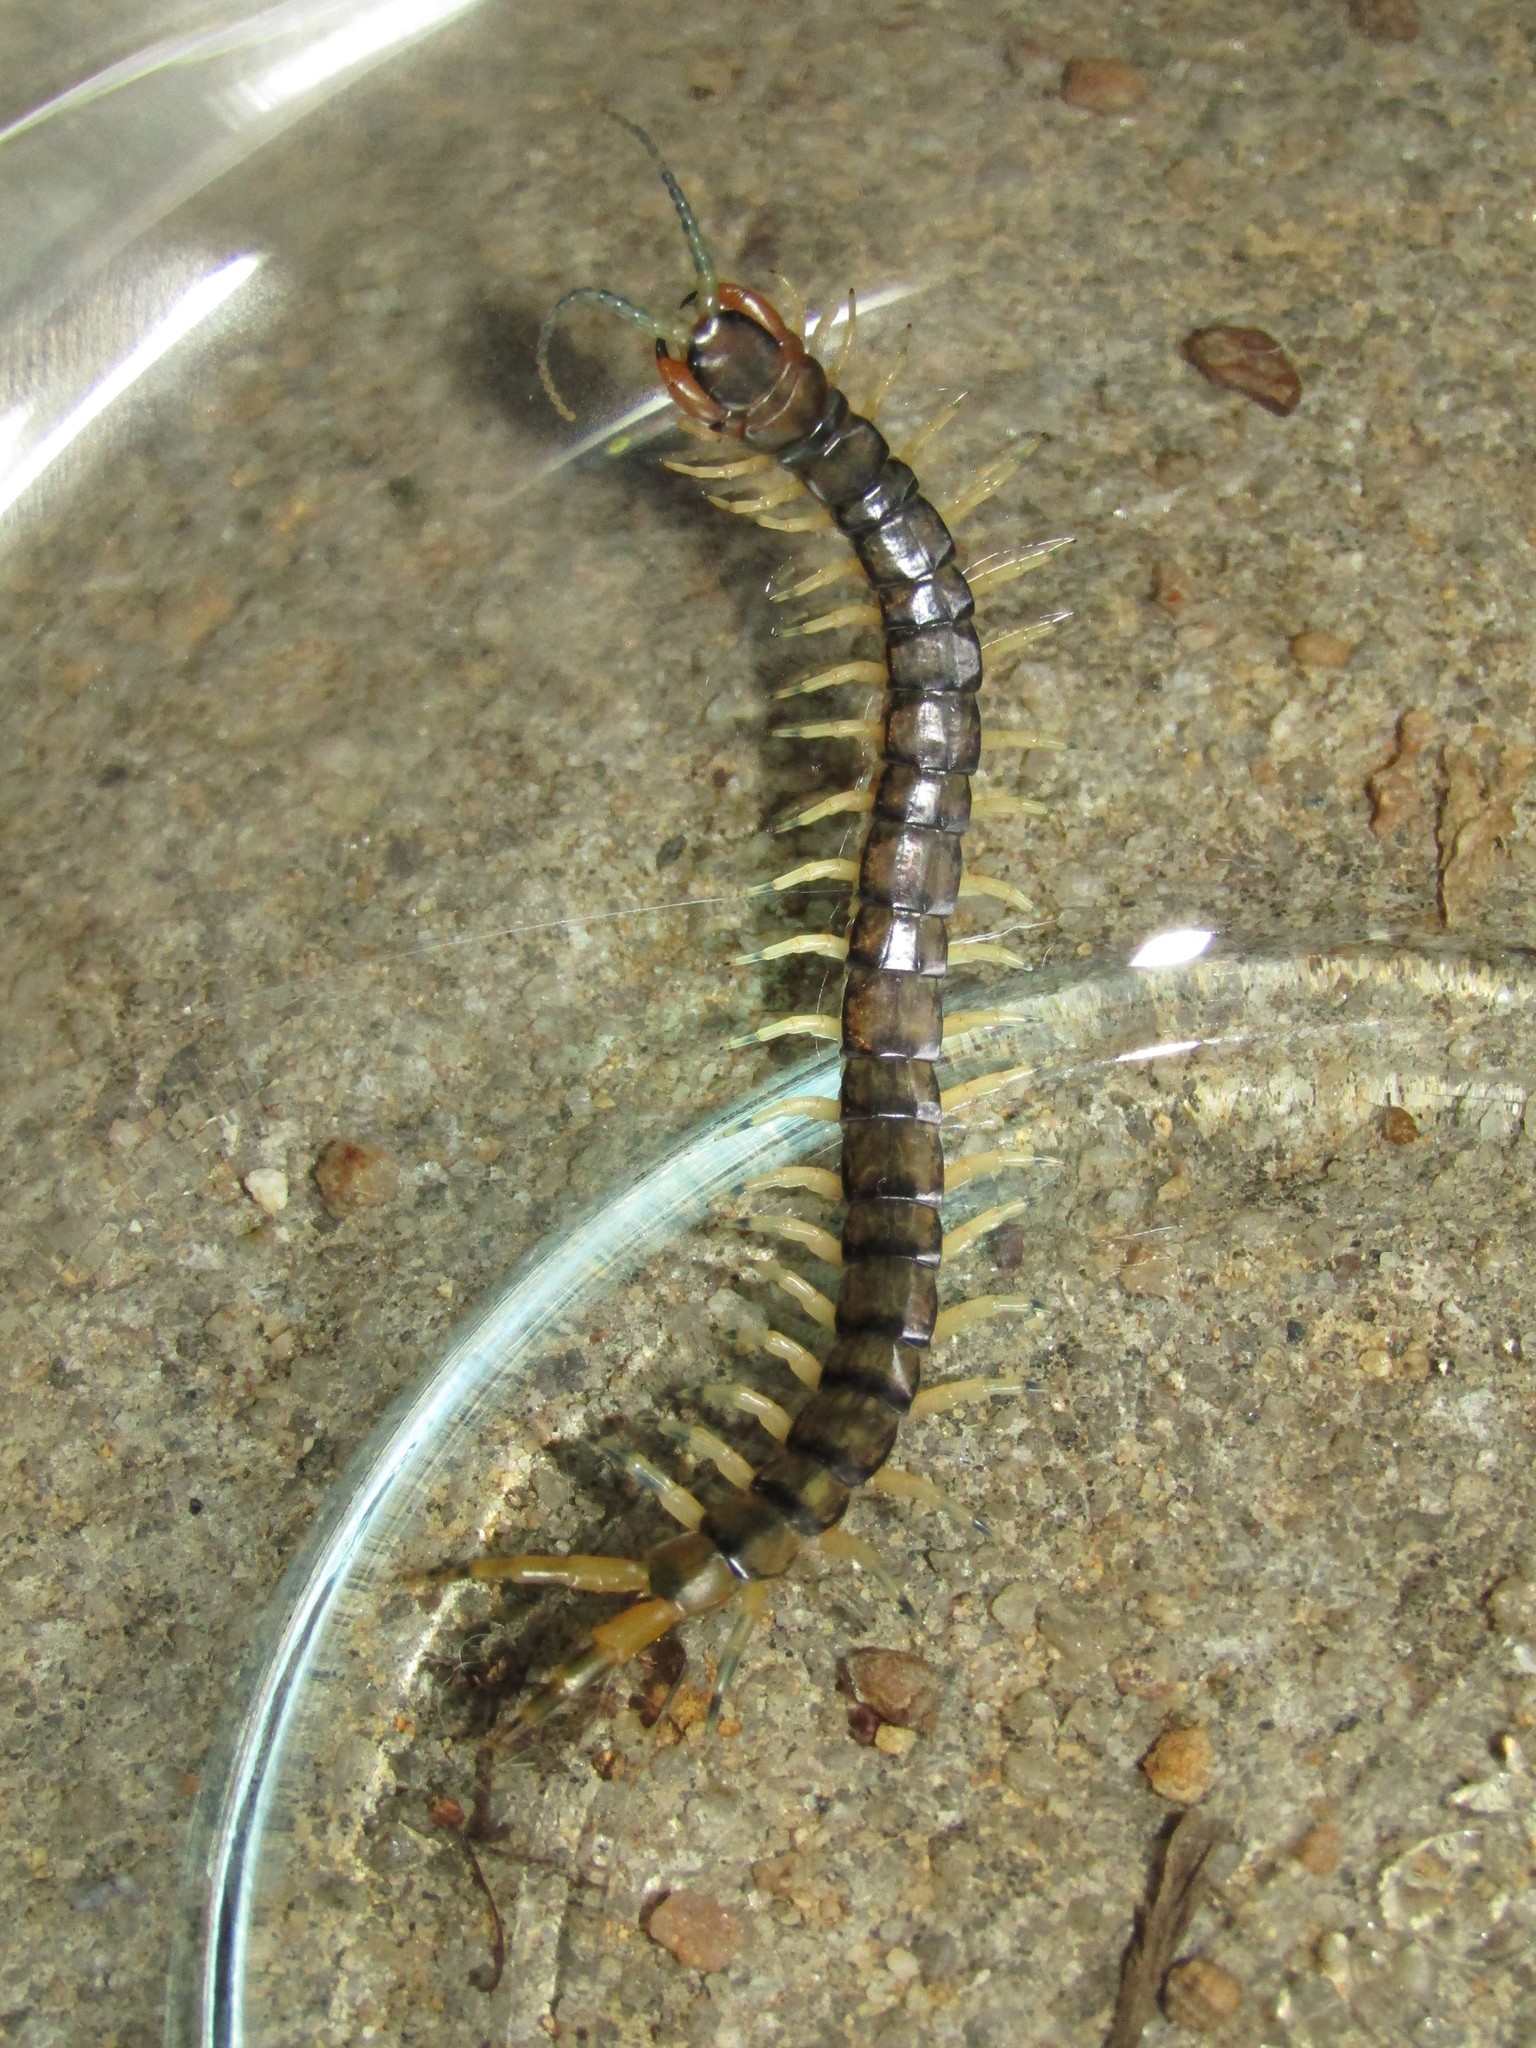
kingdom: Animalia
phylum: Arthropoda
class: Chilopoda
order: Scolopendromorpha
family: Scolopendridae
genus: Hemiscolopendra
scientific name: Hemiscolopendra marginata
